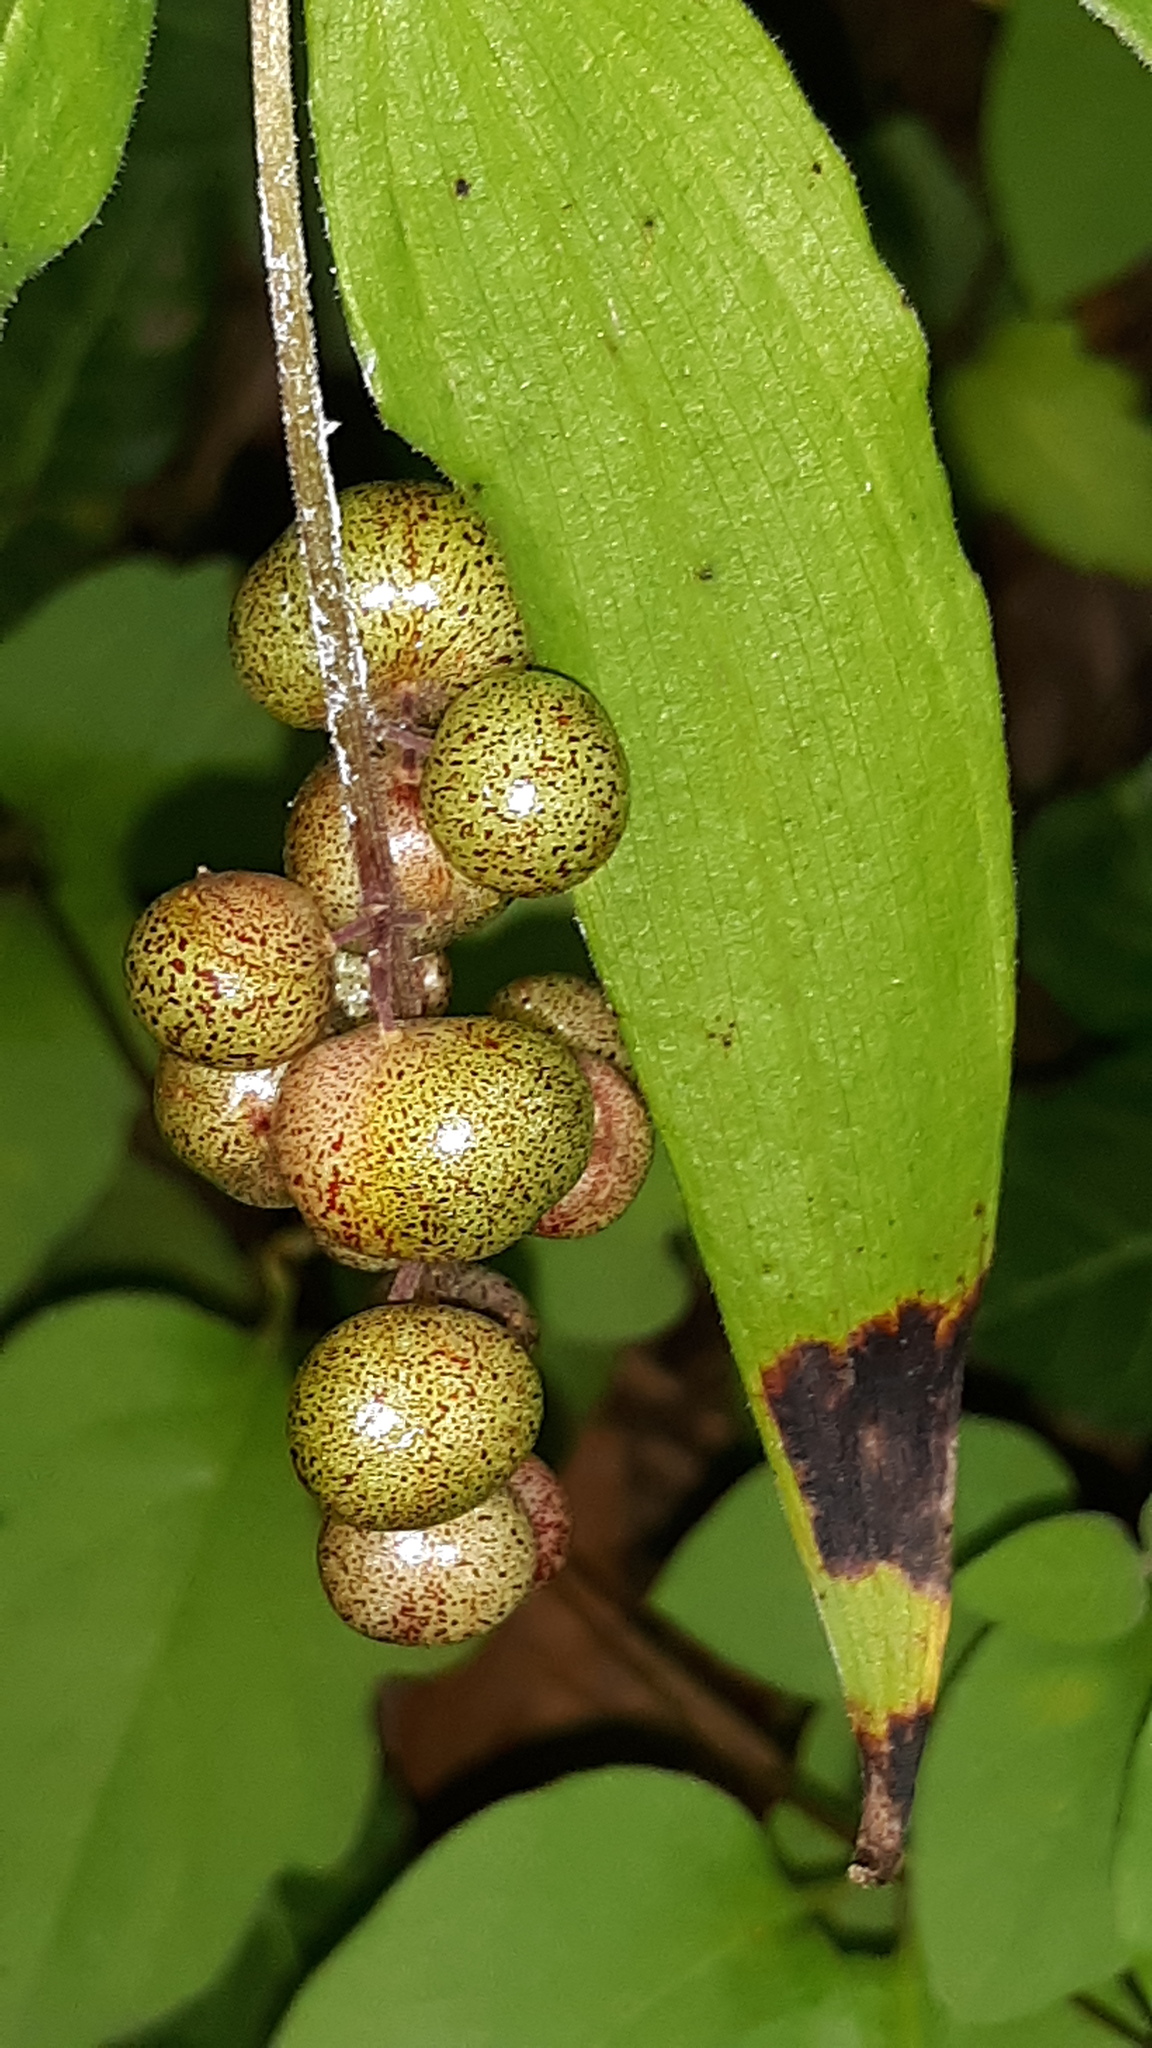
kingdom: Plantae
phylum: Tracheophyta
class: Liliopsida
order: Asparagales
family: Asparagaceae
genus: Maianthemum
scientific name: Maianthemum racemosum
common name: False spikenard
